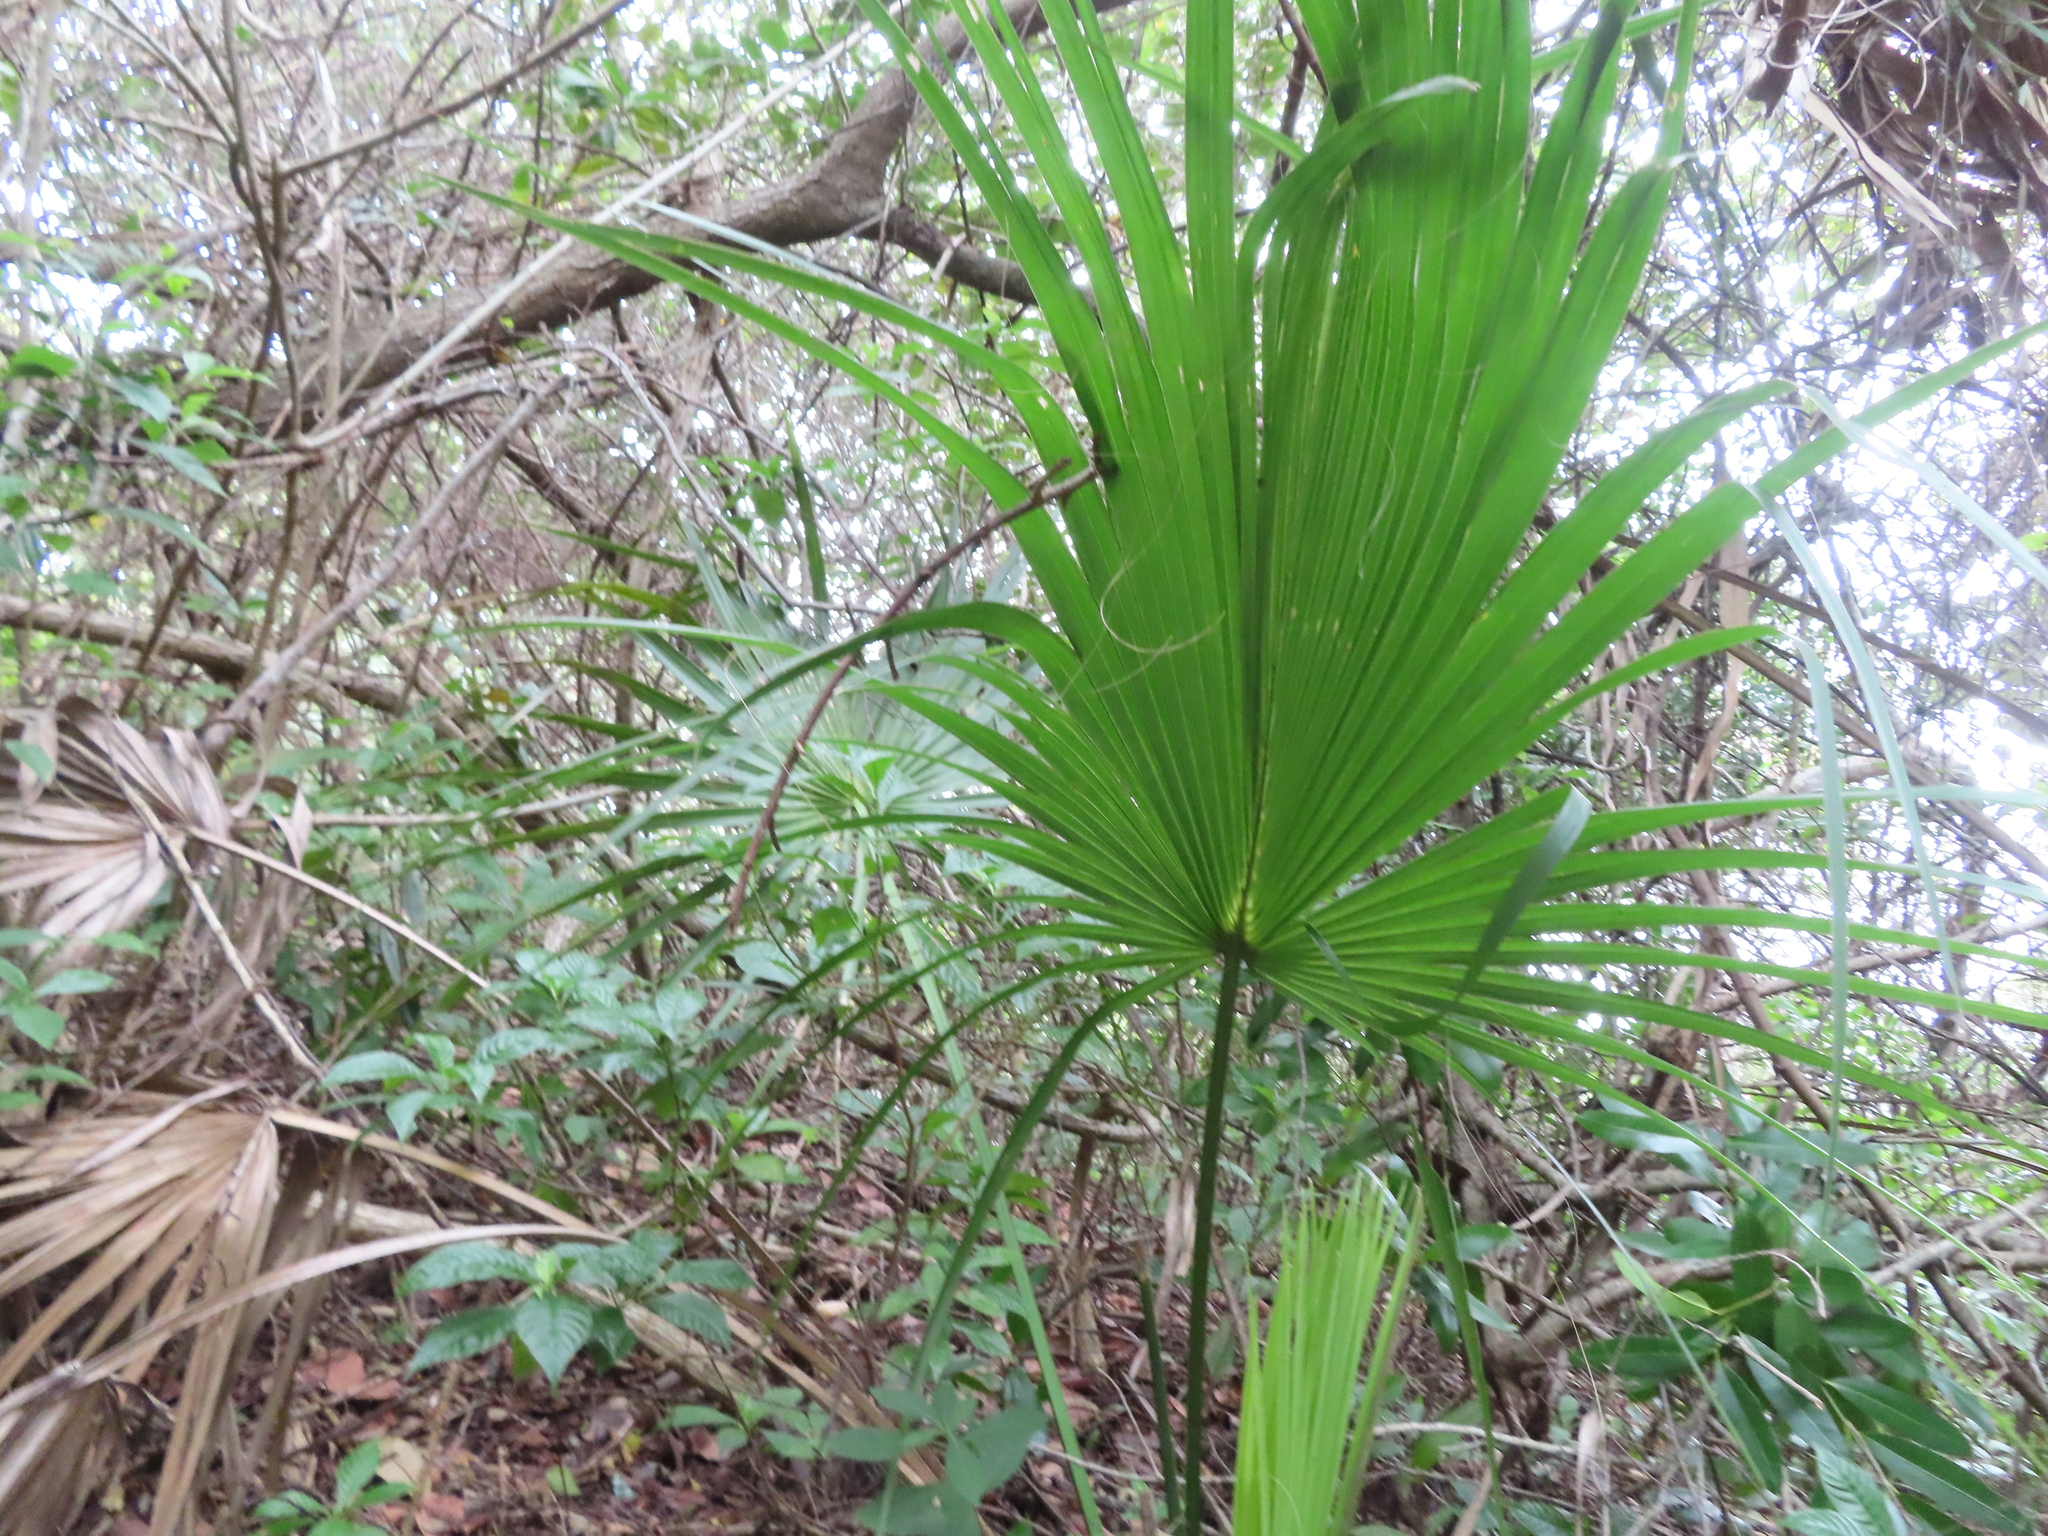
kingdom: Plantae
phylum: Tracheophyta
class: Liliopsida
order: Arecales
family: Arecaceae
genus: Sabal
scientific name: Sabal palmetto
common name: Blue palmetto
